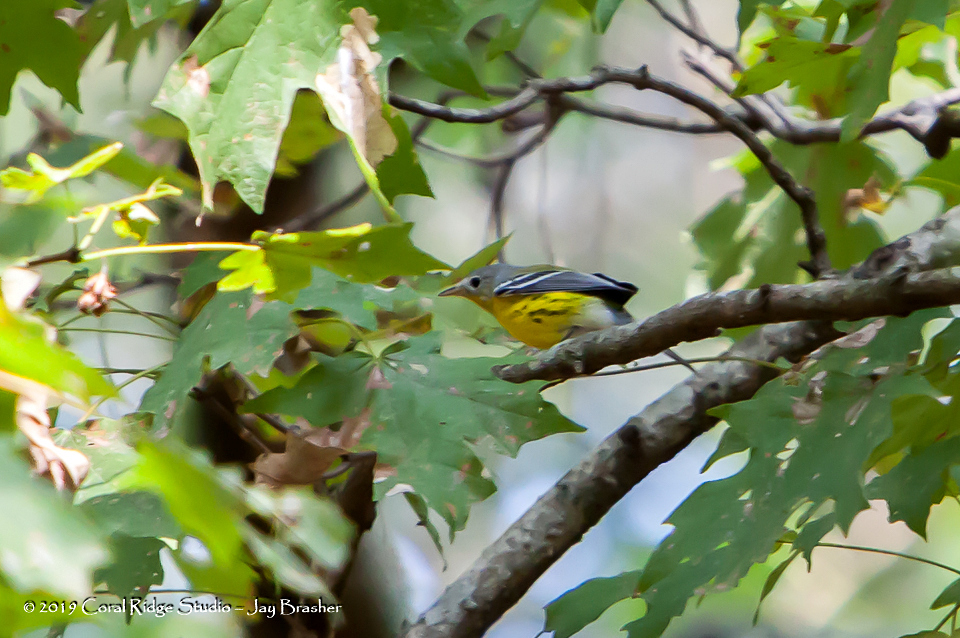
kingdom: Animalia
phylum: Chordata
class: Aves
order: Passeriformes
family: Parulidae
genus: Setophaga
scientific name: Setophaga magnolia
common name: Magnolia warbler
